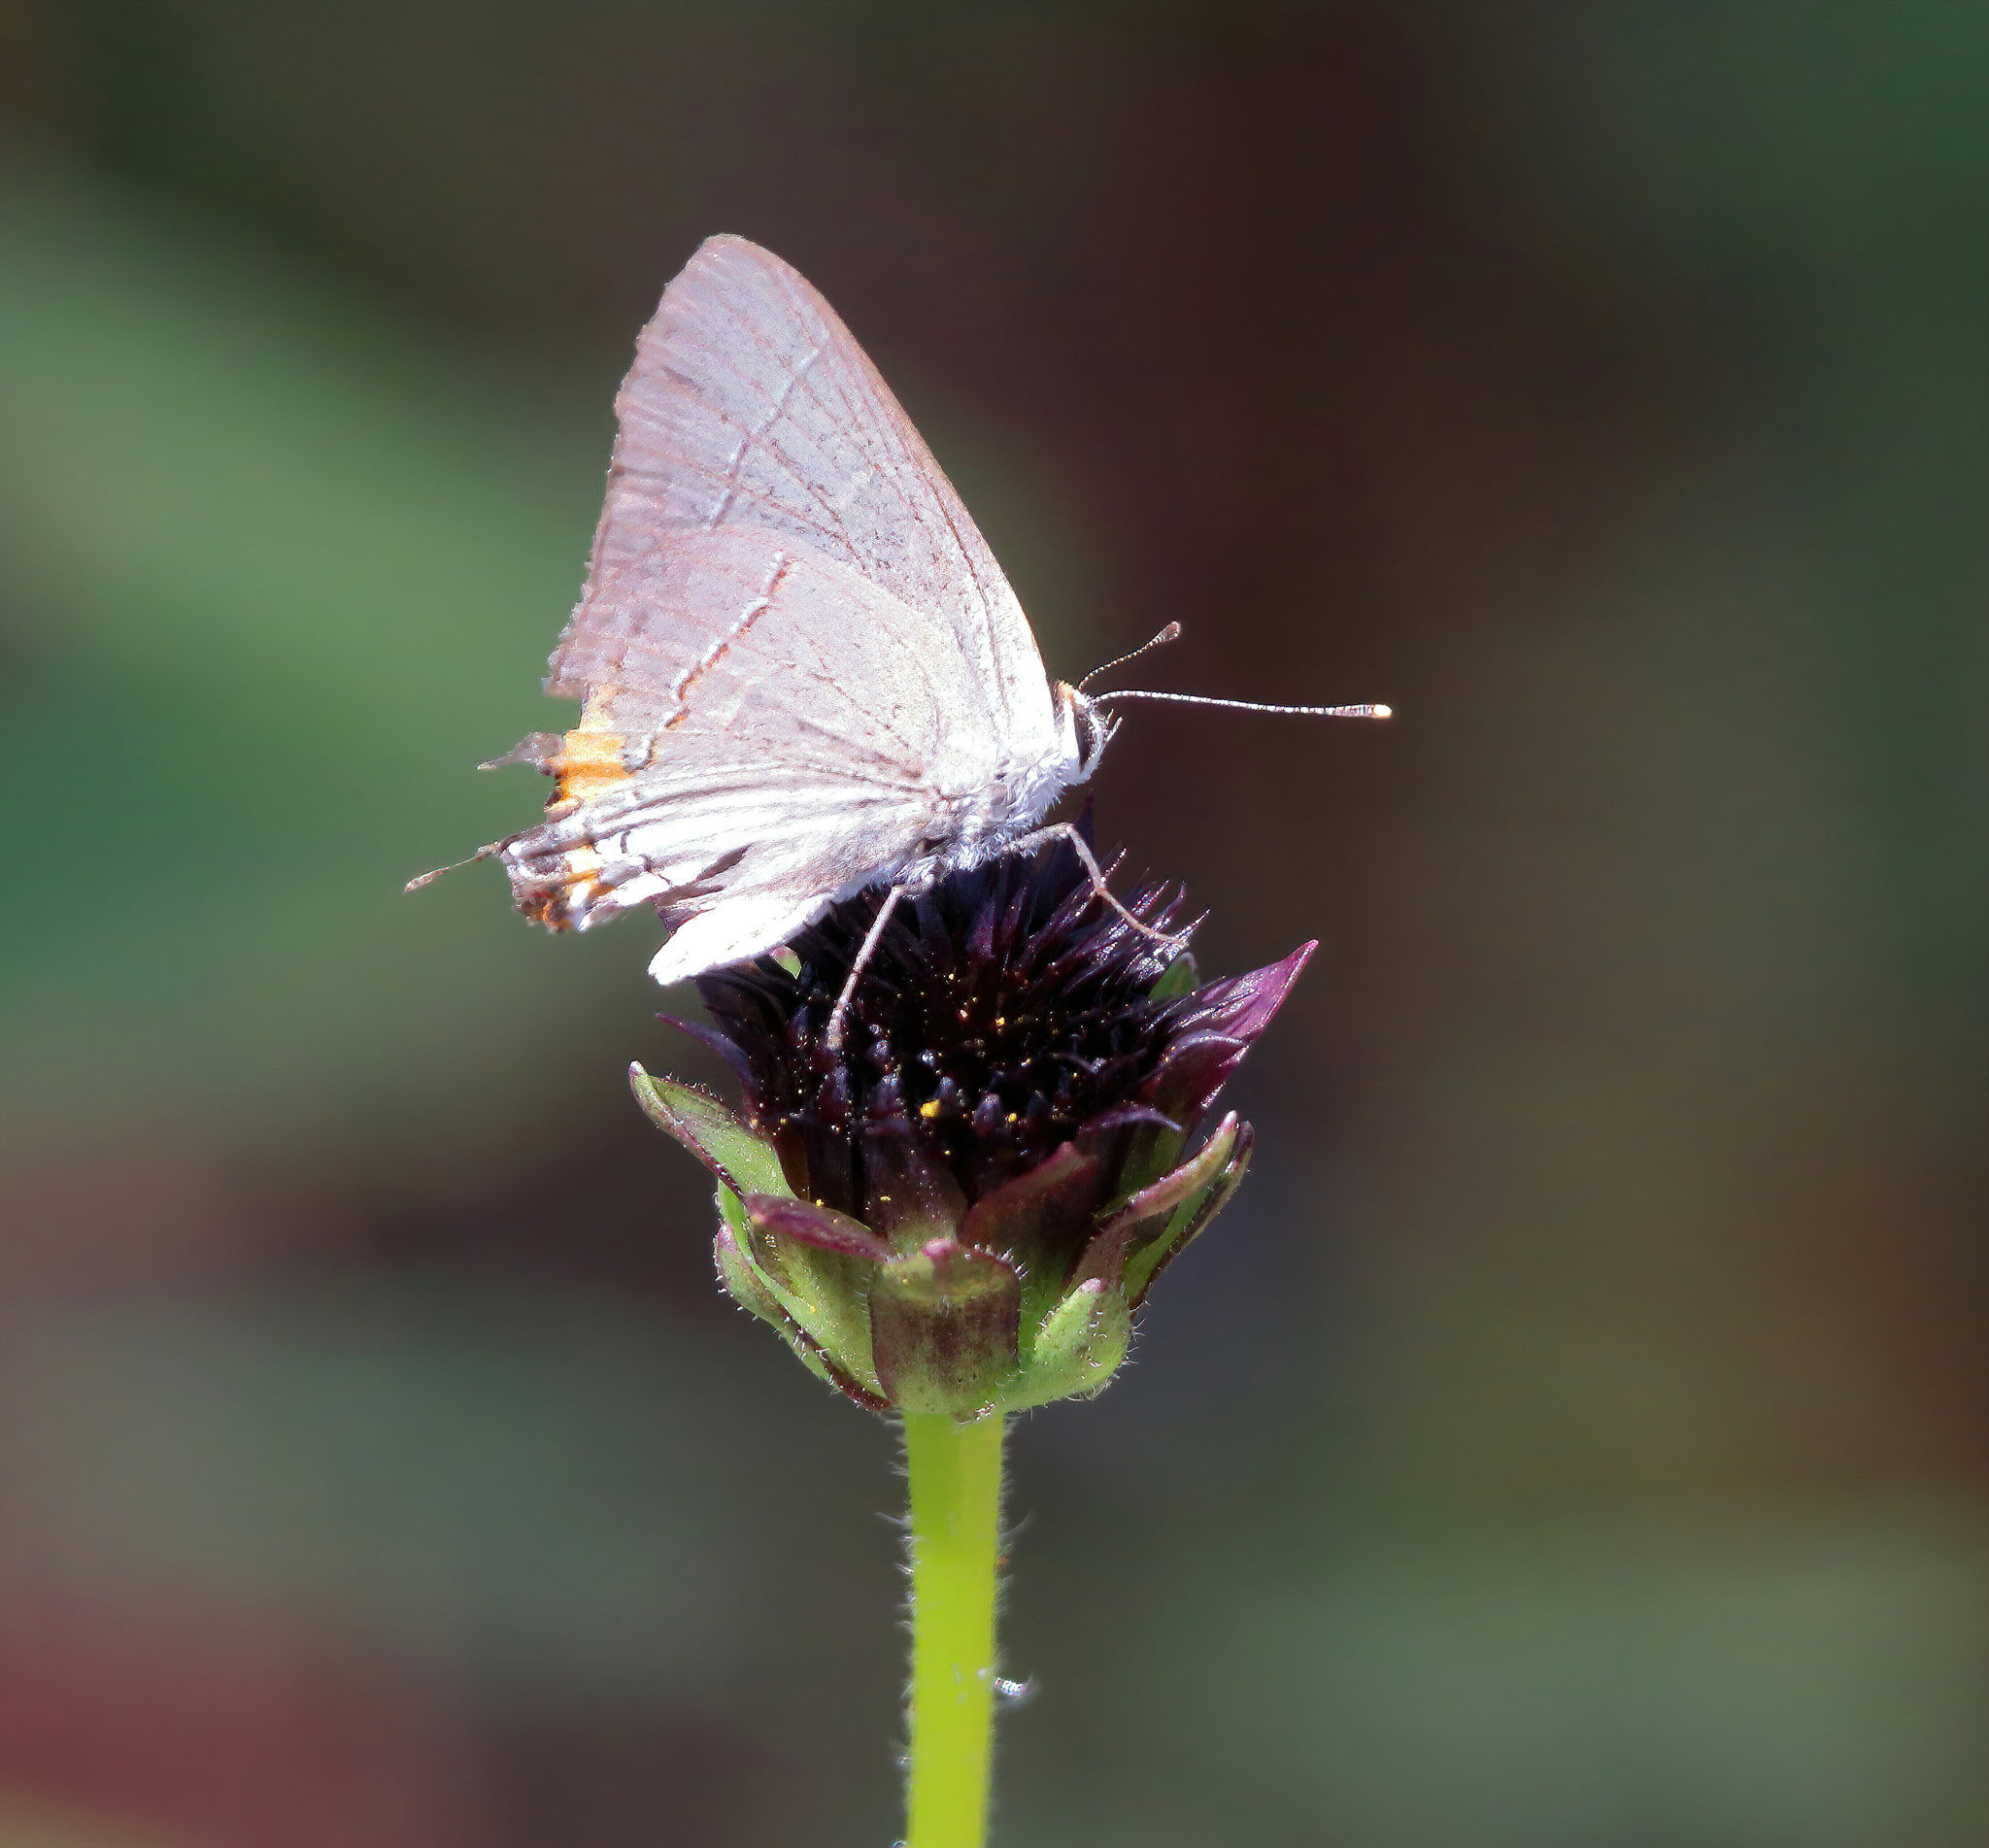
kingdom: Animalia
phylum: Arthropoda
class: Insecta
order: Lepidoptera
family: Lycaenidae
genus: Strymon
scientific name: Strymon melinus
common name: Gray hairstreak
